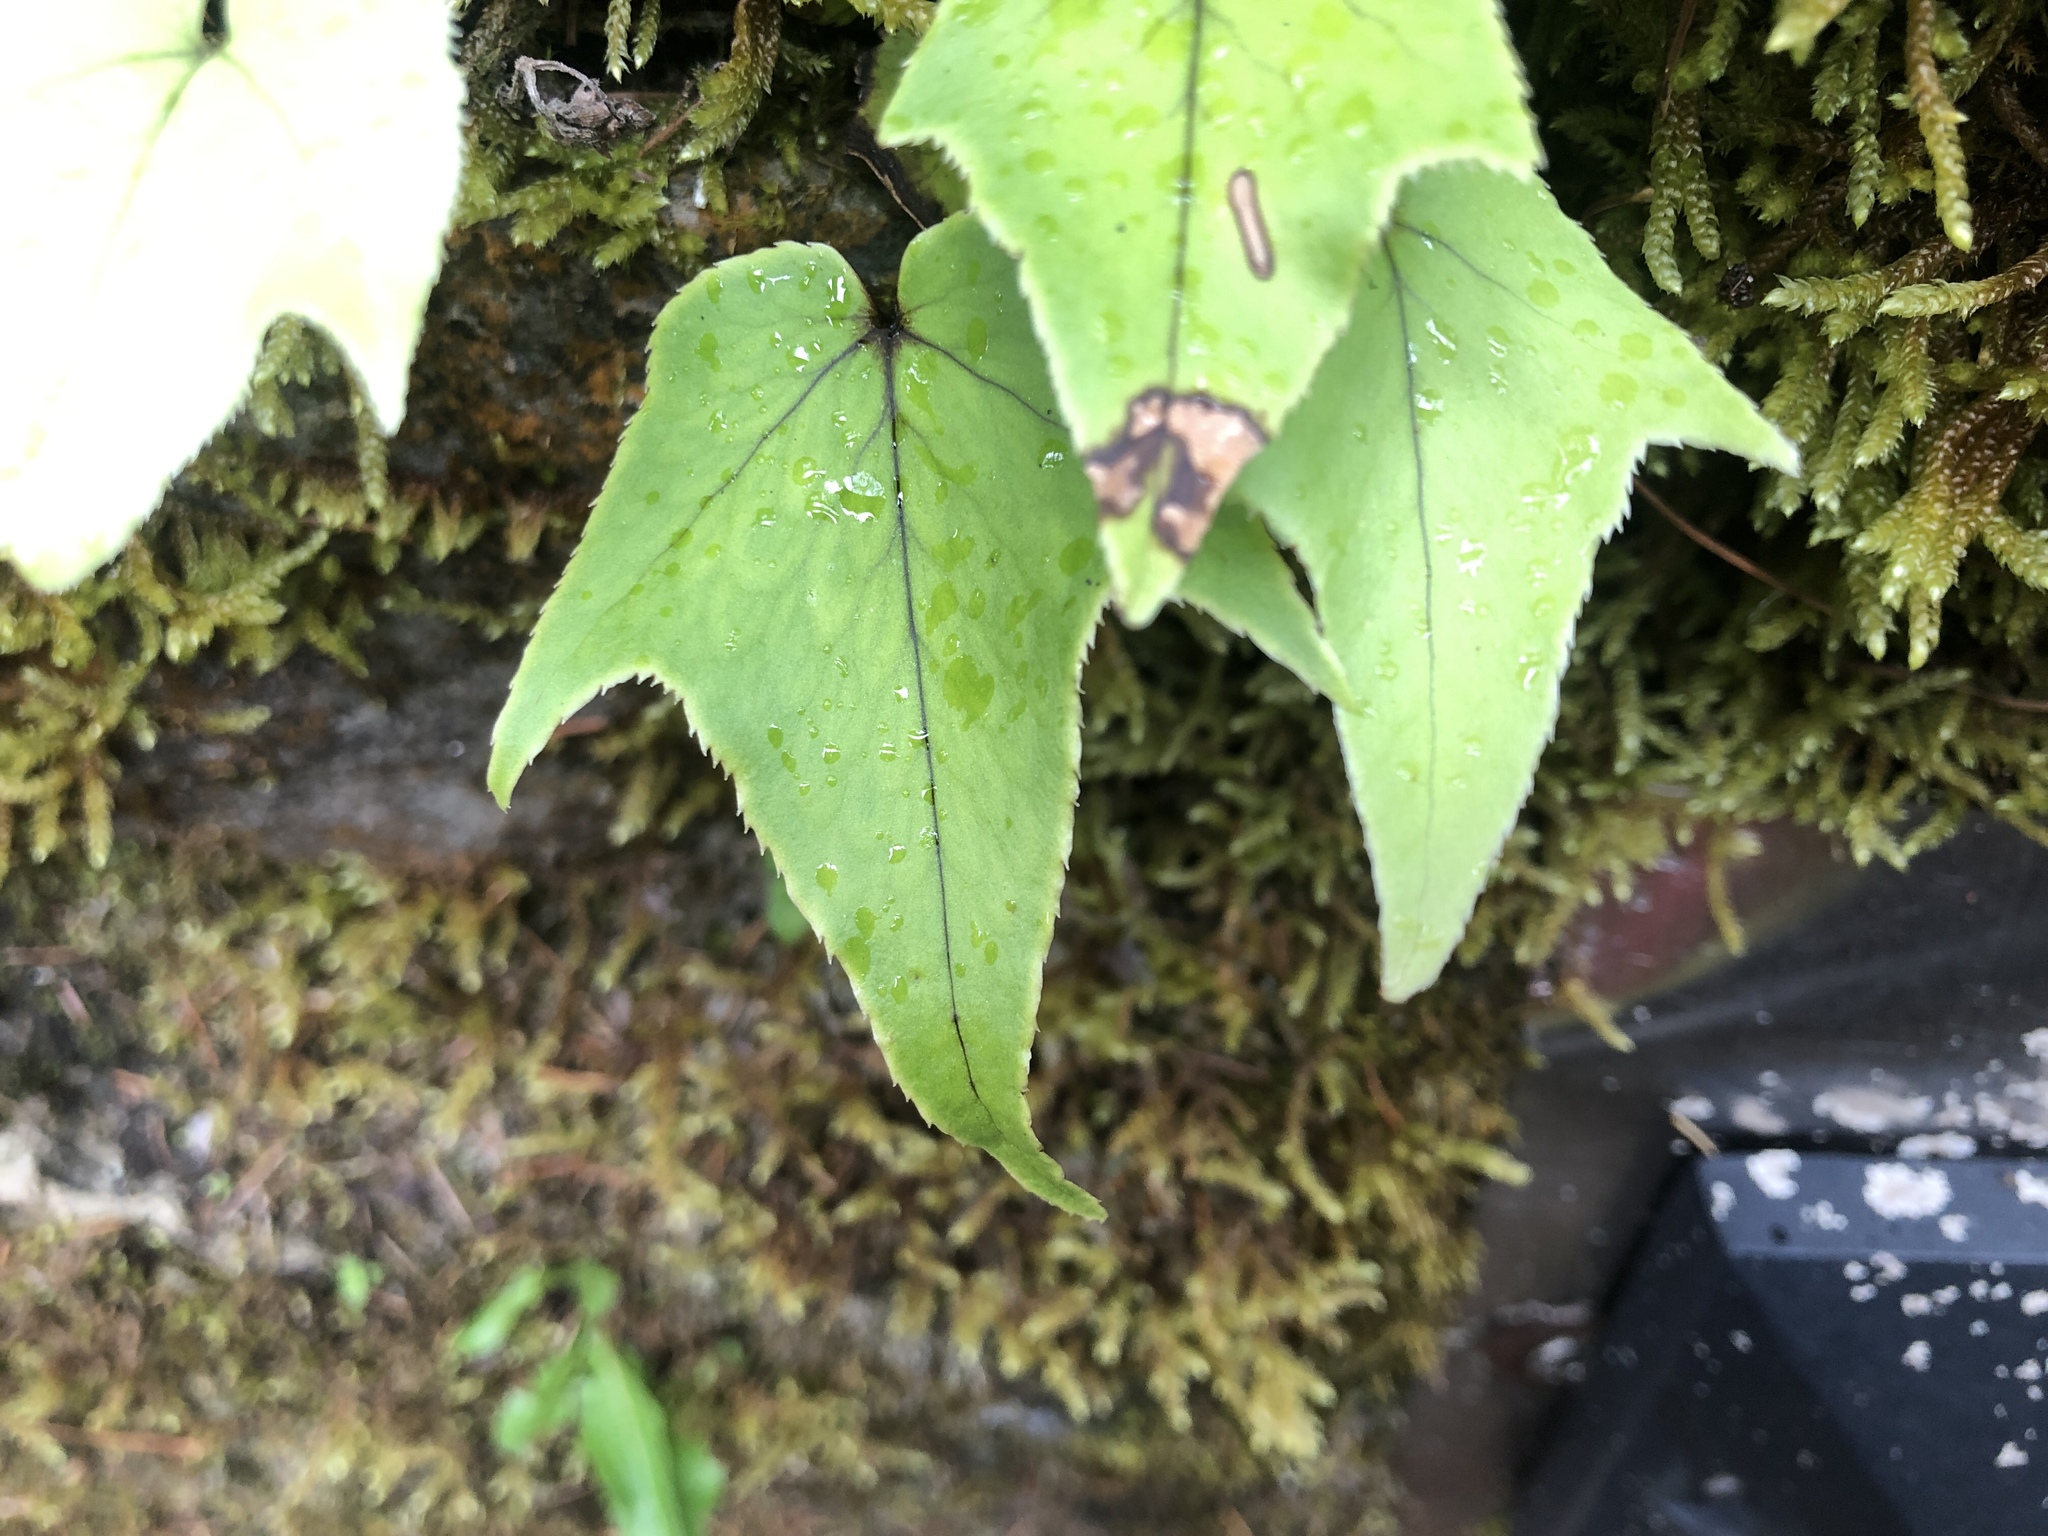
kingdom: Plantae
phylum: Tracheophyta
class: Polypodiopsida
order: Polypodiales
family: Dryopteridaceae
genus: Cyrtomium
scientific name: Cyrtomium caryotideum
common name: Asiatic holly fern
